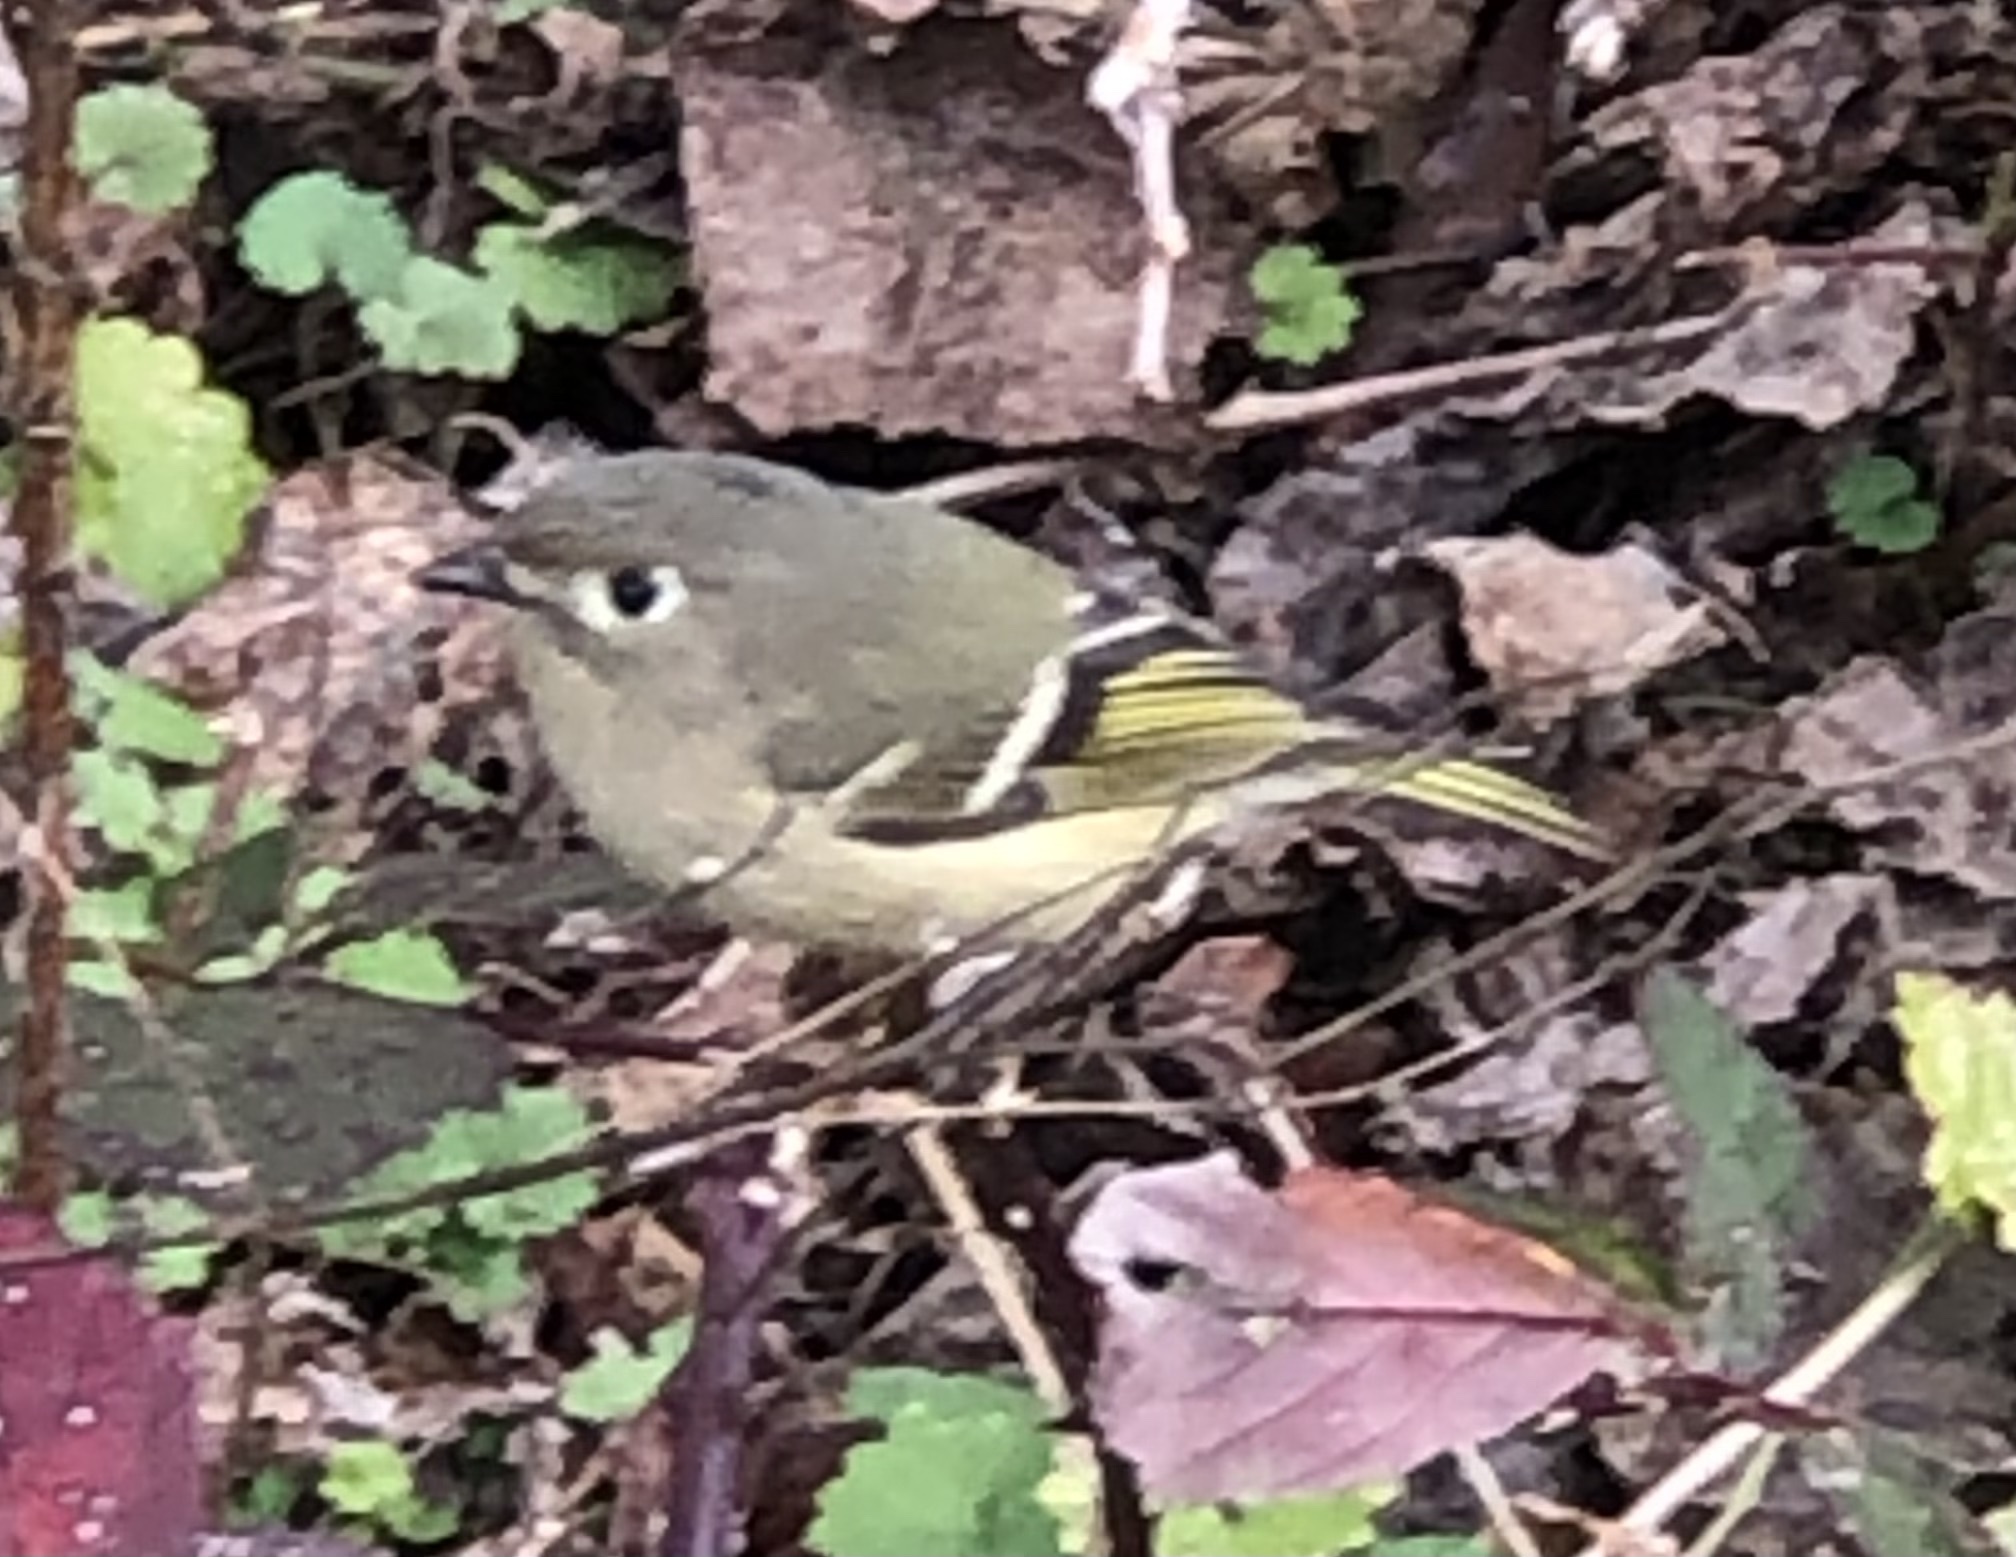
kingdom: Animalia
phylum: Chordata
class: Aves
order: Passeriformes
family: Regulidae
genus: Regulus
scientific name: Regulus calendula
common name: Ruby-crowned kinglet
